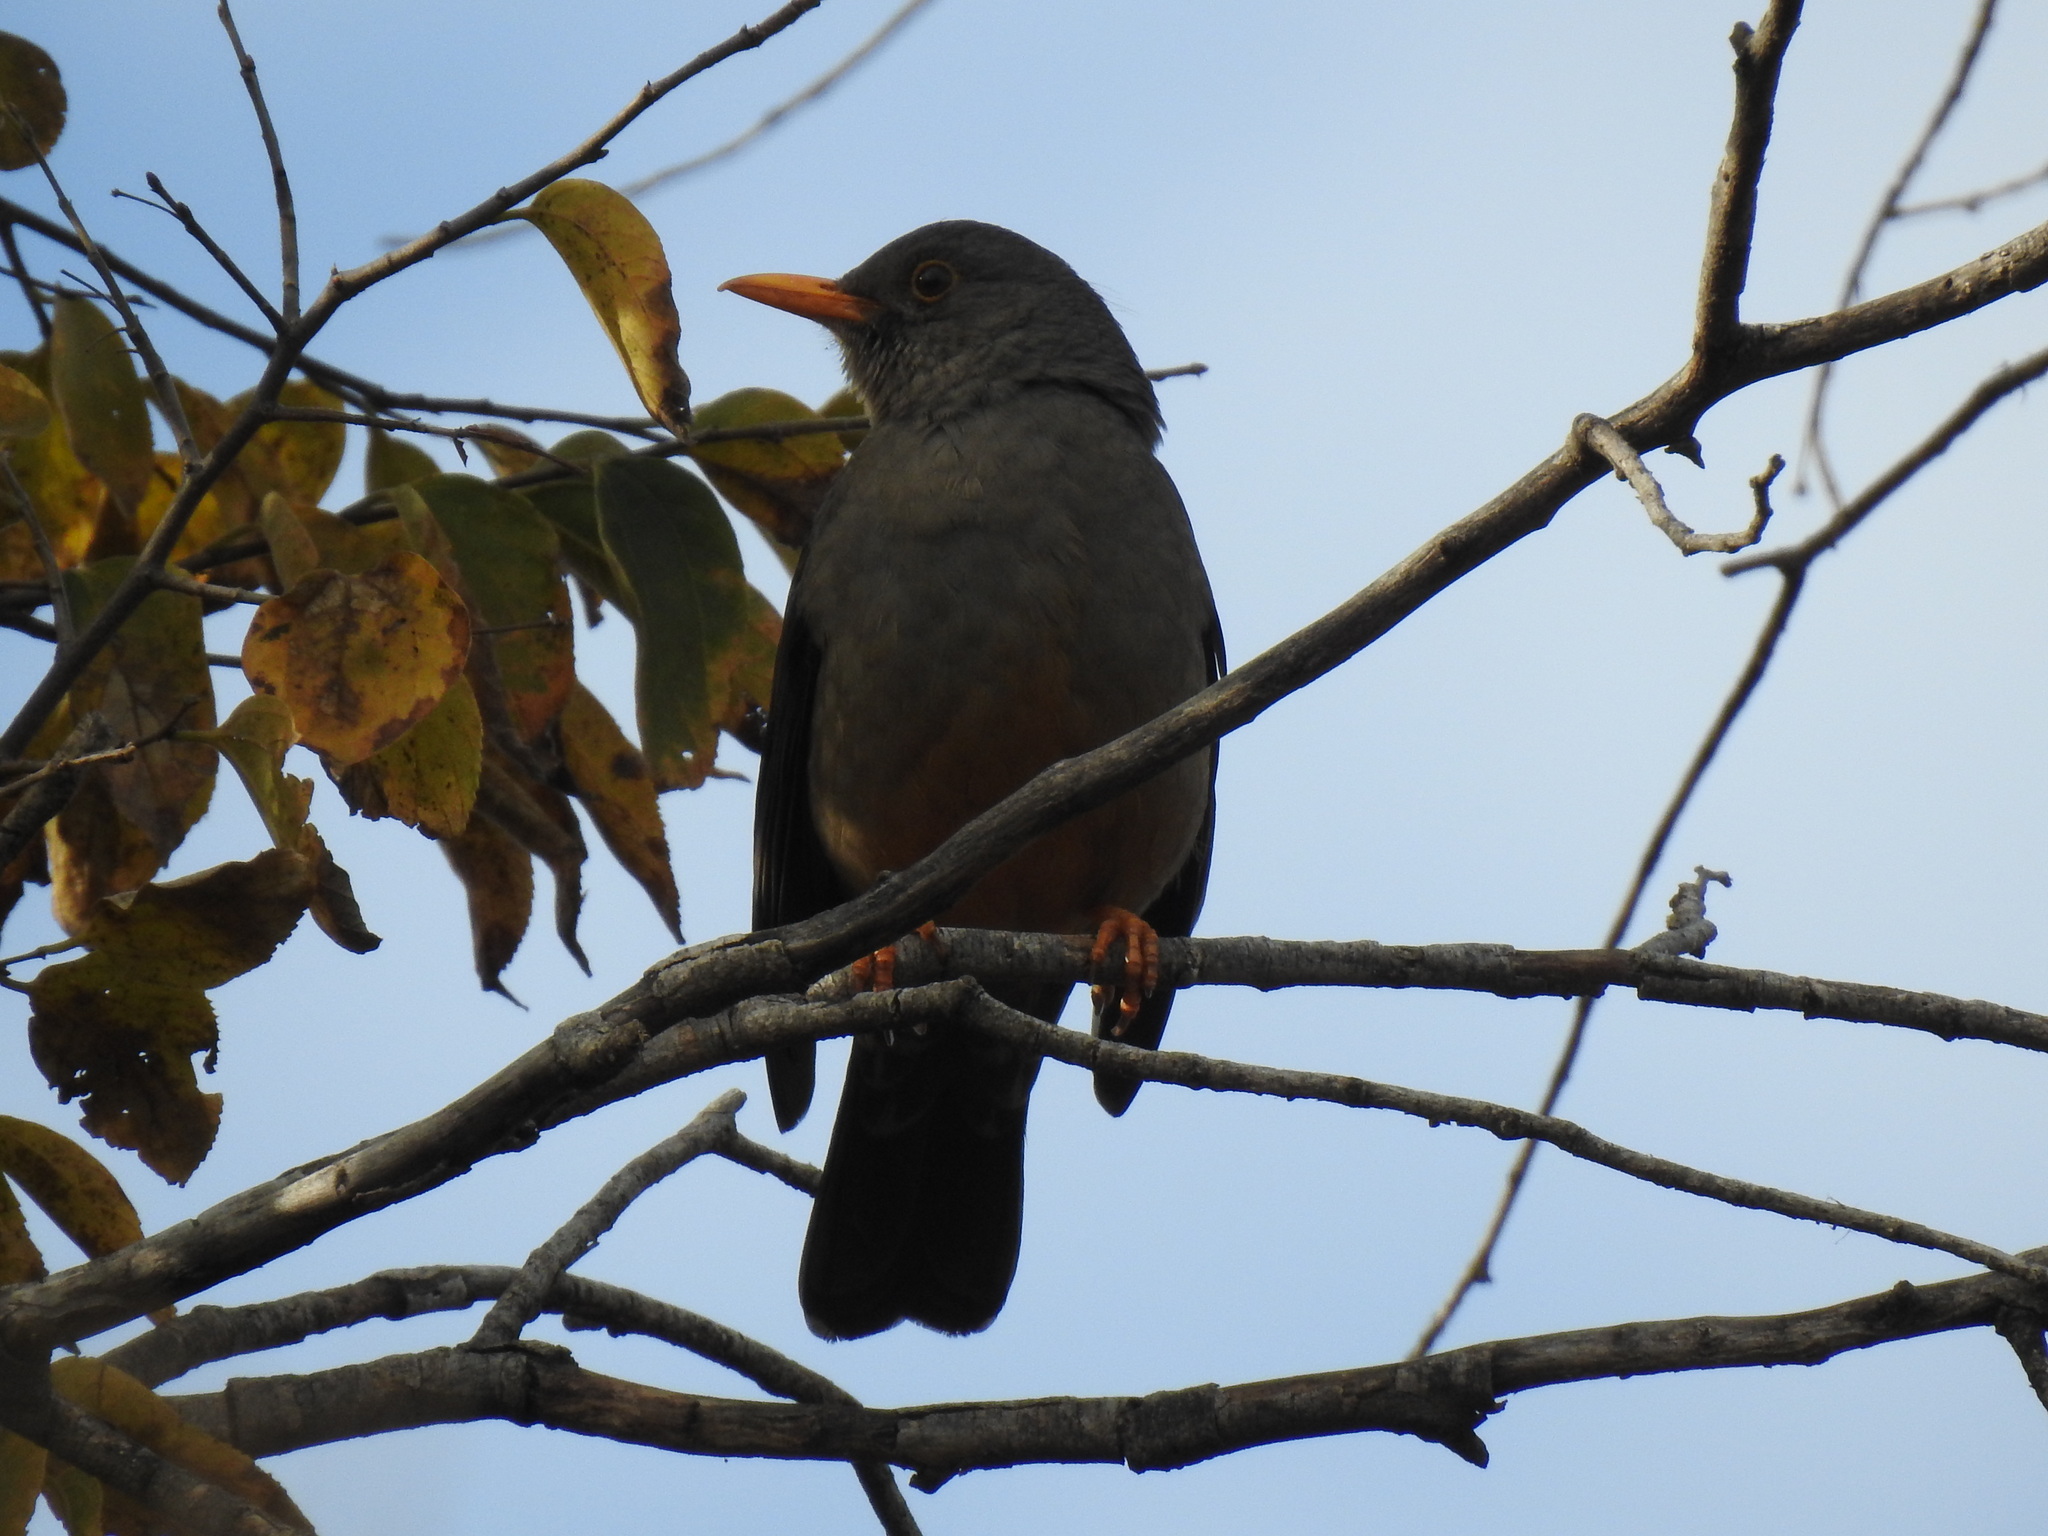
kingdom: Animalia
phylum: Chordata
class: Aves
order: Passeriformes
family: Turdidae
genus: Turdus
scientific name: Turdus smithi
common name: Karoo thrush
